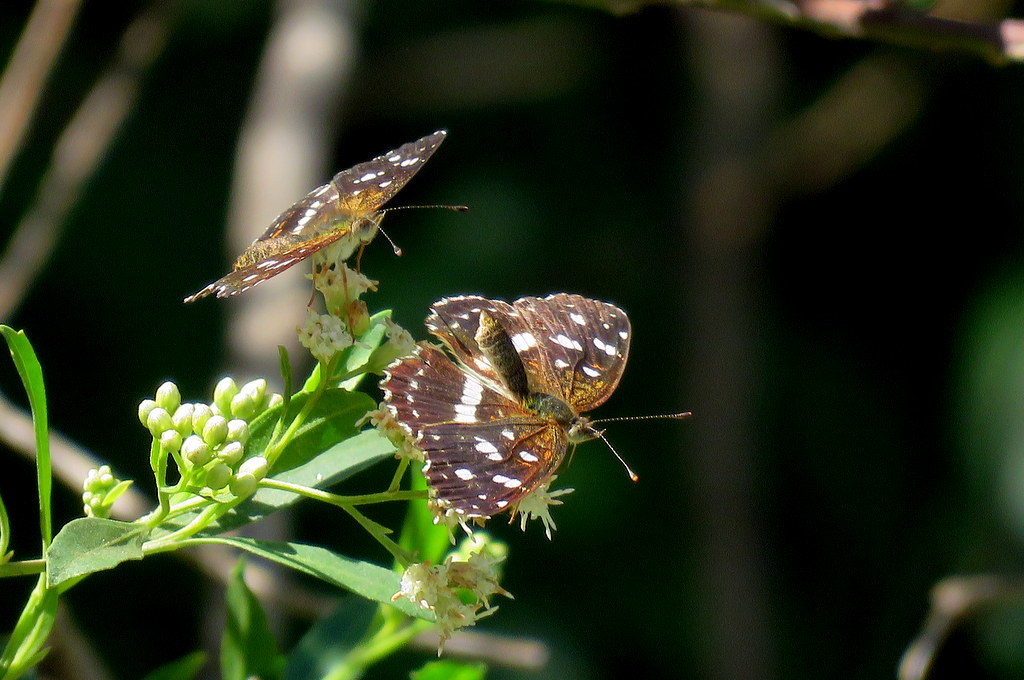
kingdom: Animalia
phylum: Arthropoda
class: Insecta
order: Lepidoptera
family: Nymphalidae
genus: Ortilia
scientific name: Ortilia ithra
